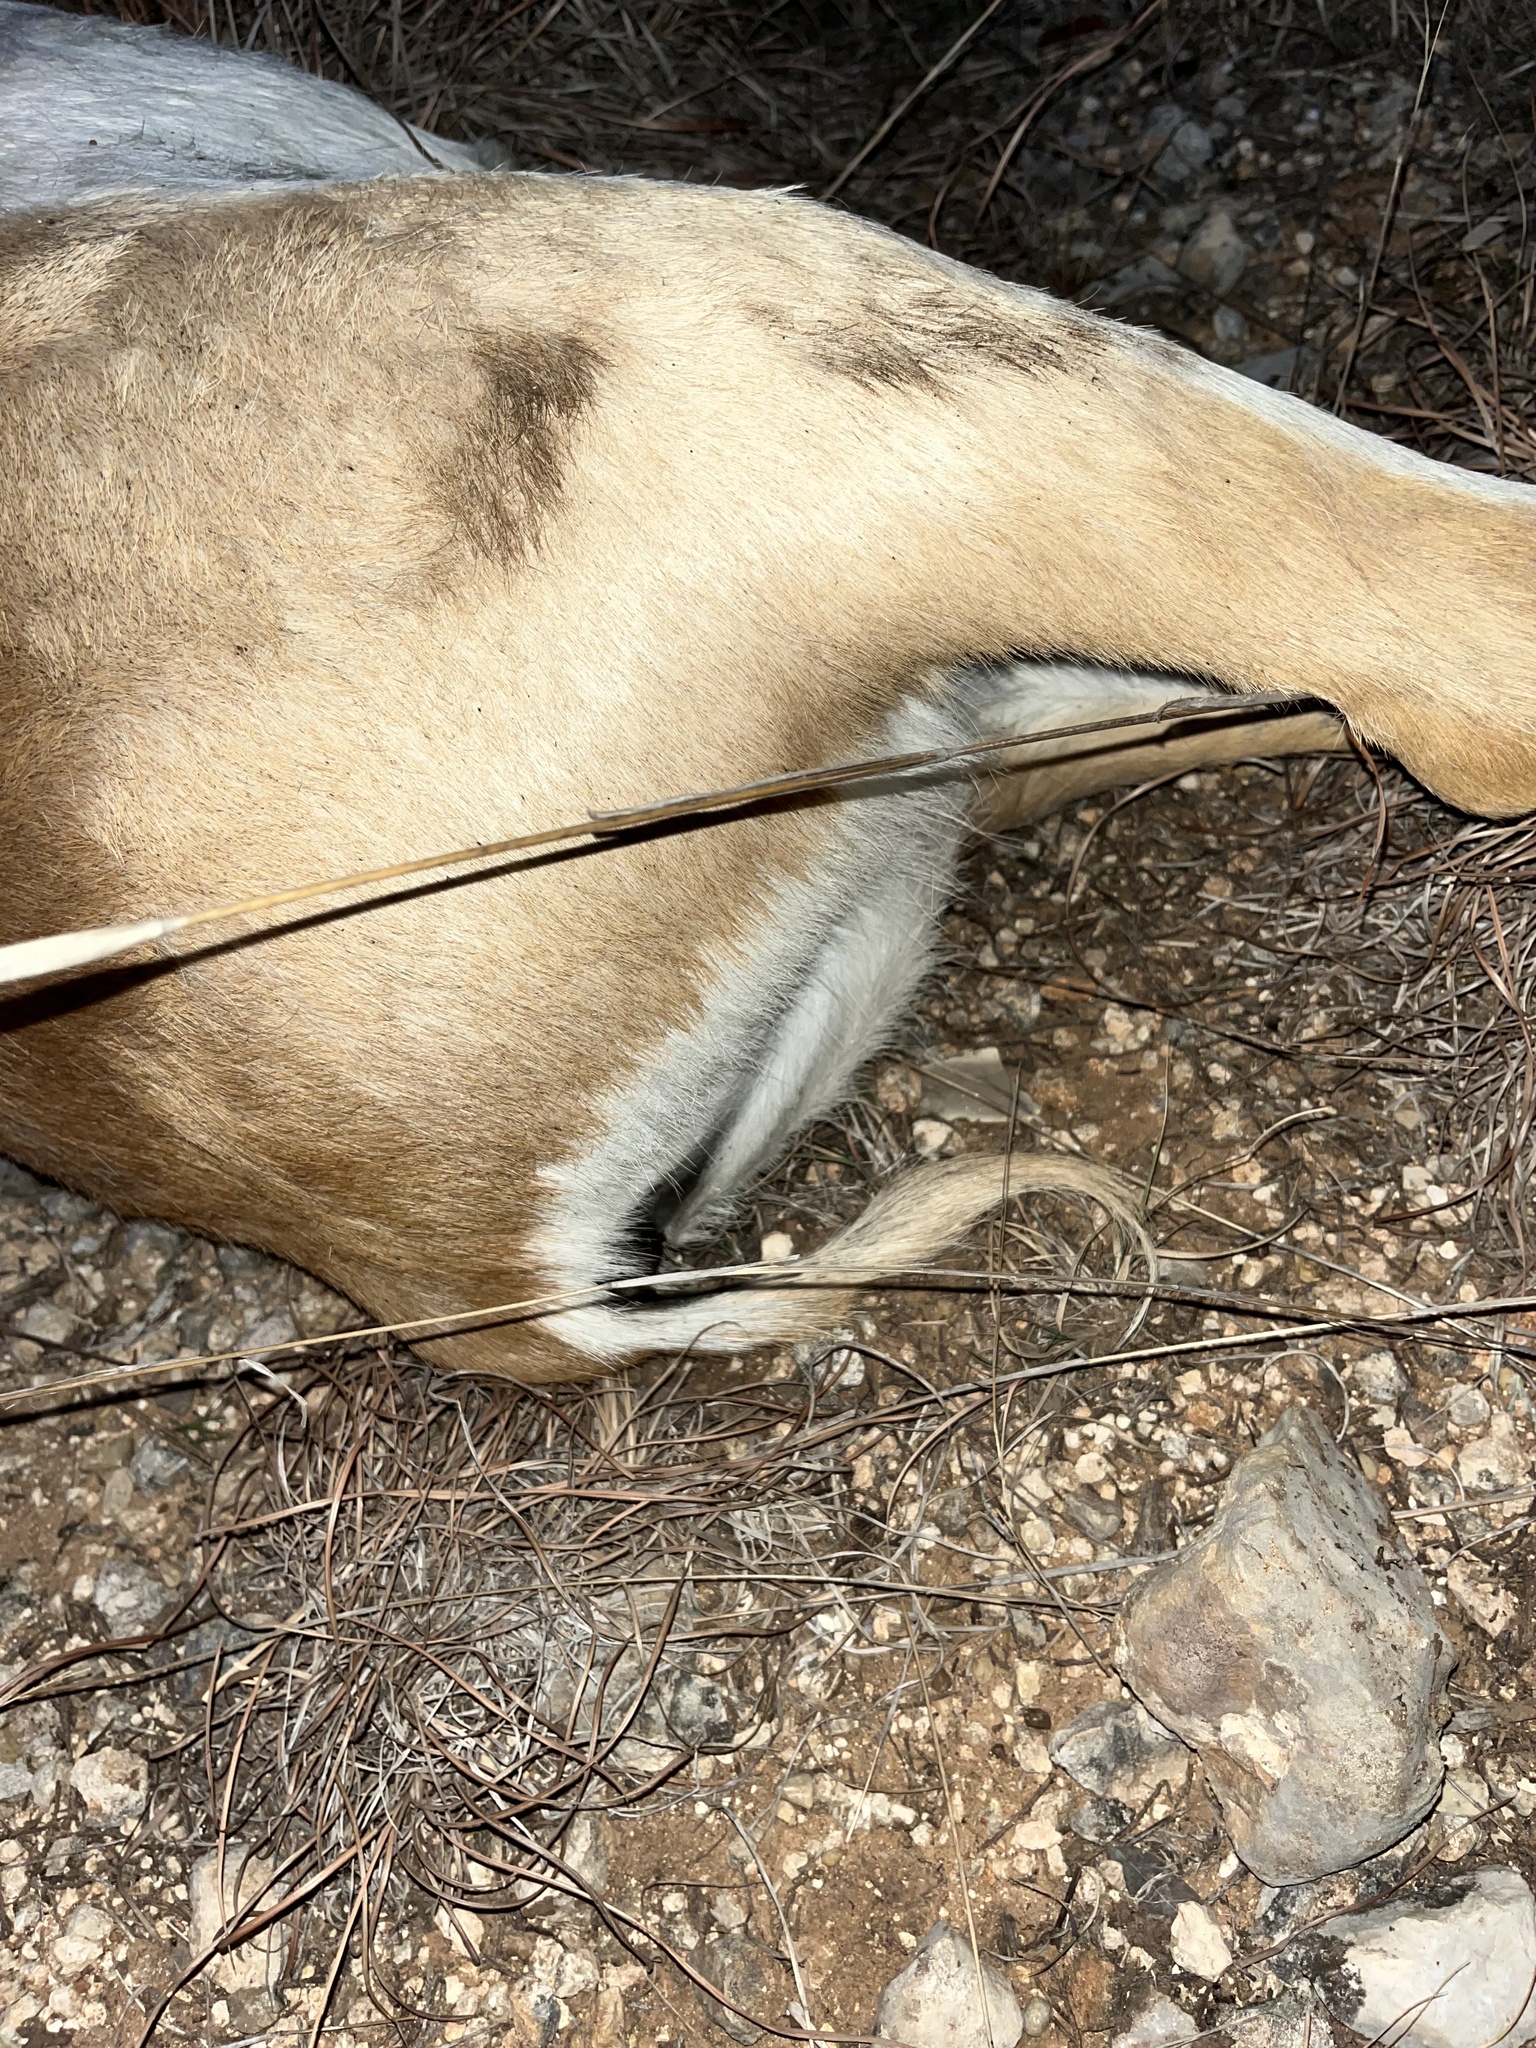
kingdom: Animalia
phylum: Chordata
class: Mammalia
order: Artiodactyla
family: Bovidae
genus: Antilope
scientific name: Antilope cervicapra
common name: Blackbuck
